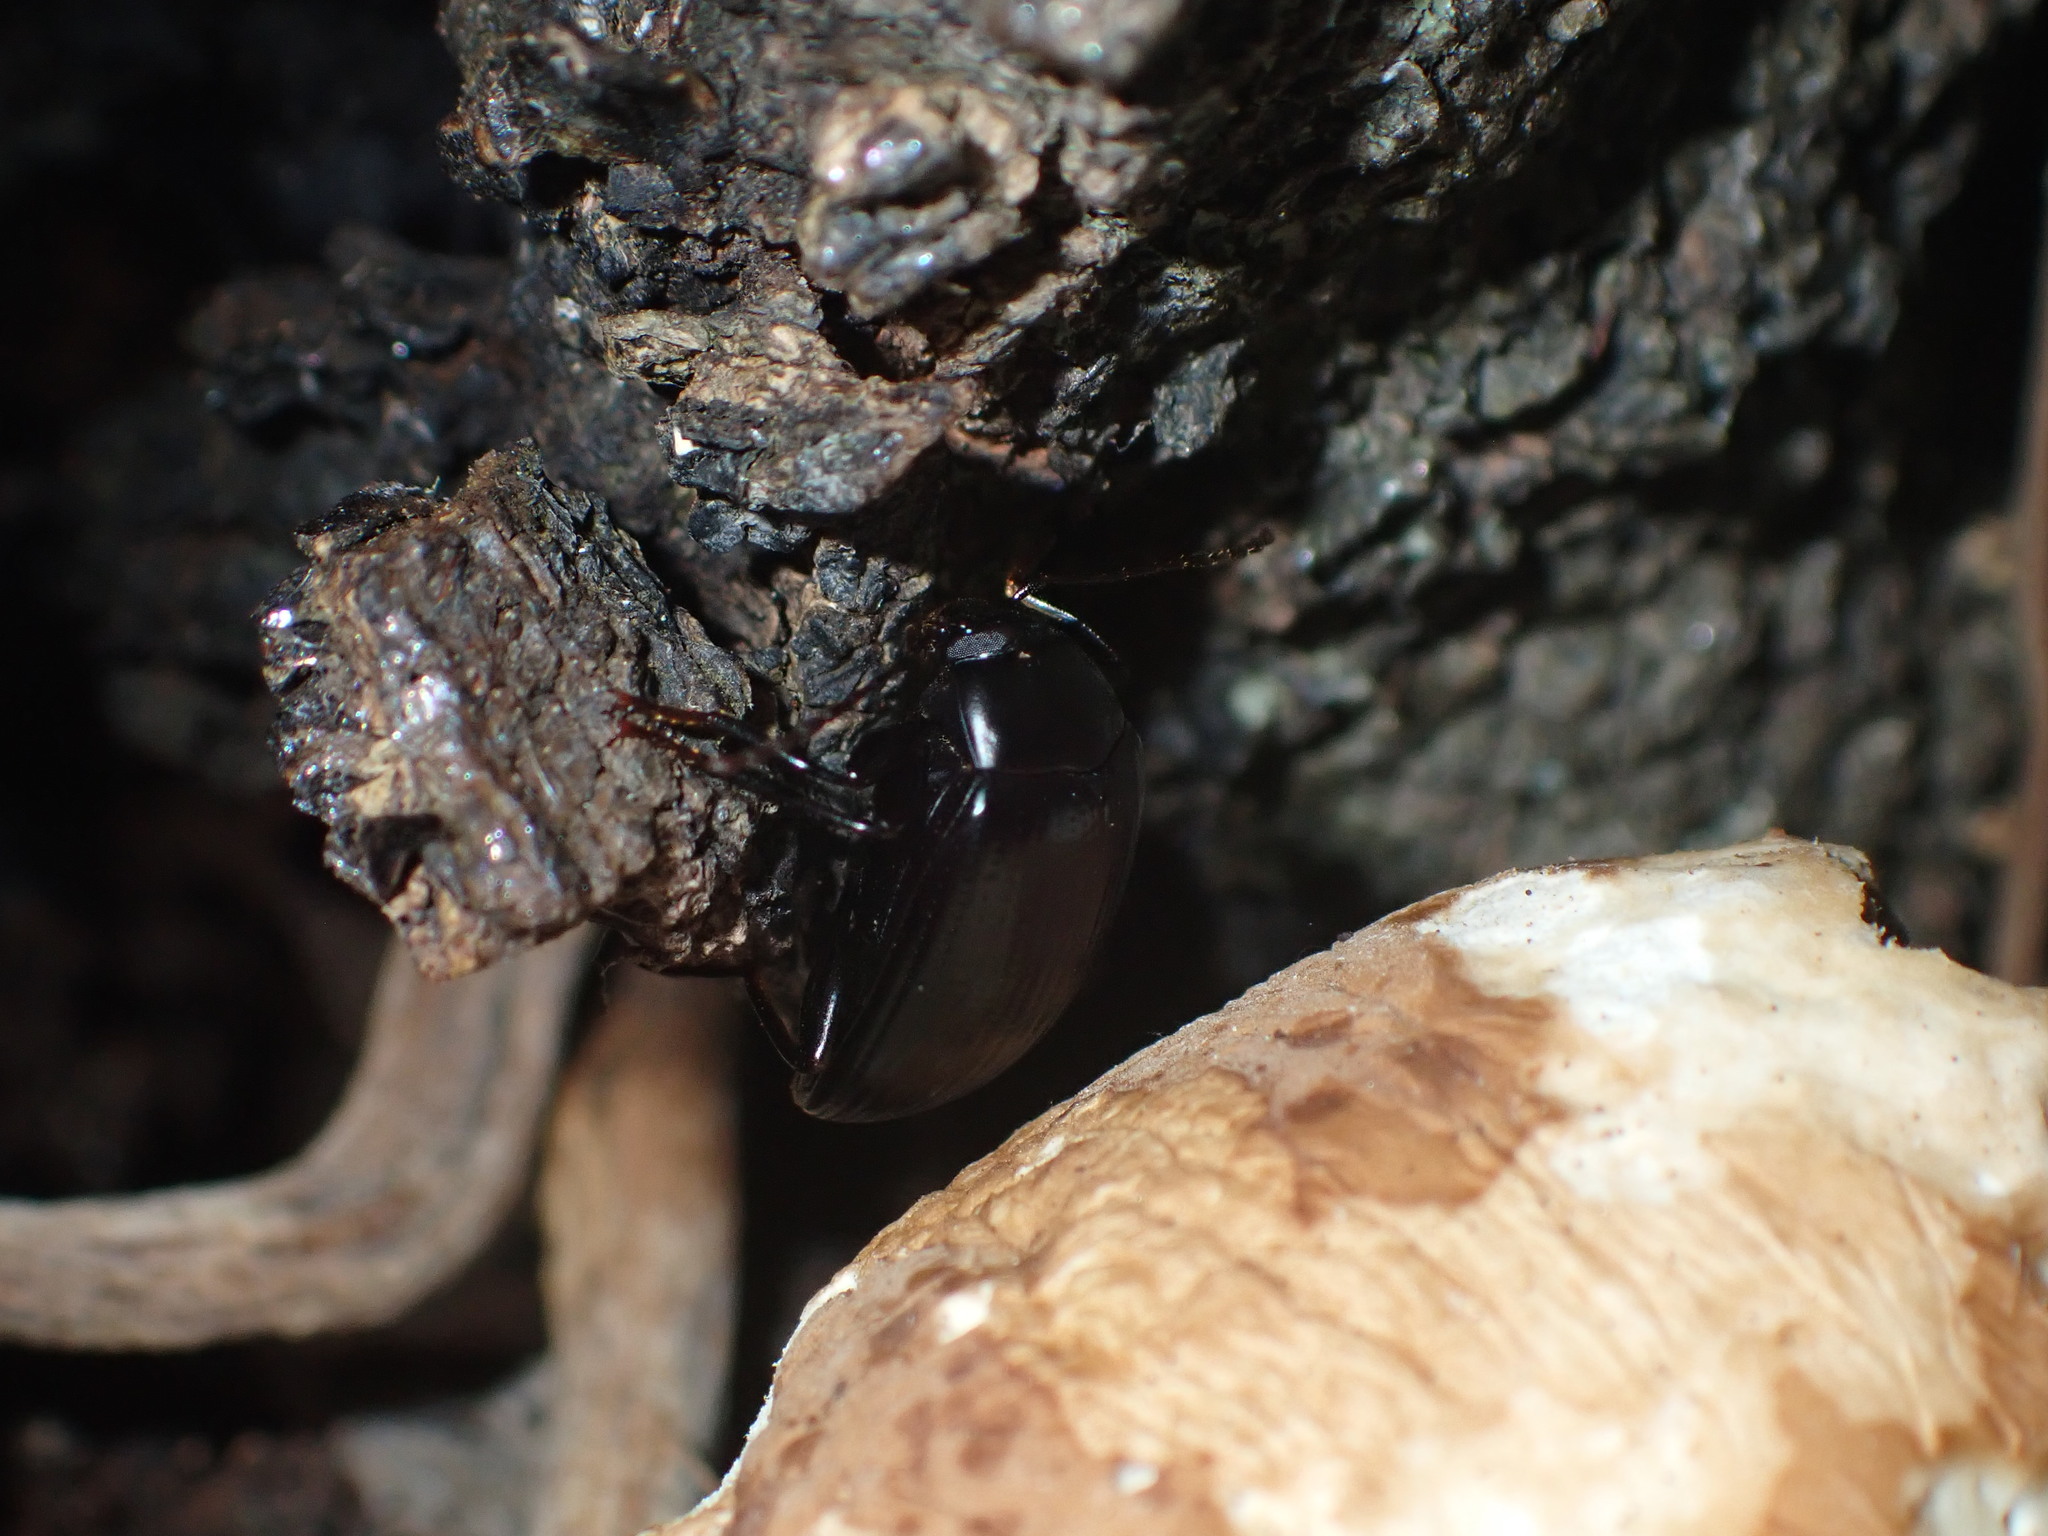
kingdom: Animalia
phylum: Arthropoda
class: Insecta
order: Coleoptera
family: Tenebrionidae
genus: Amarygmus
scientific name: Amarygmus
